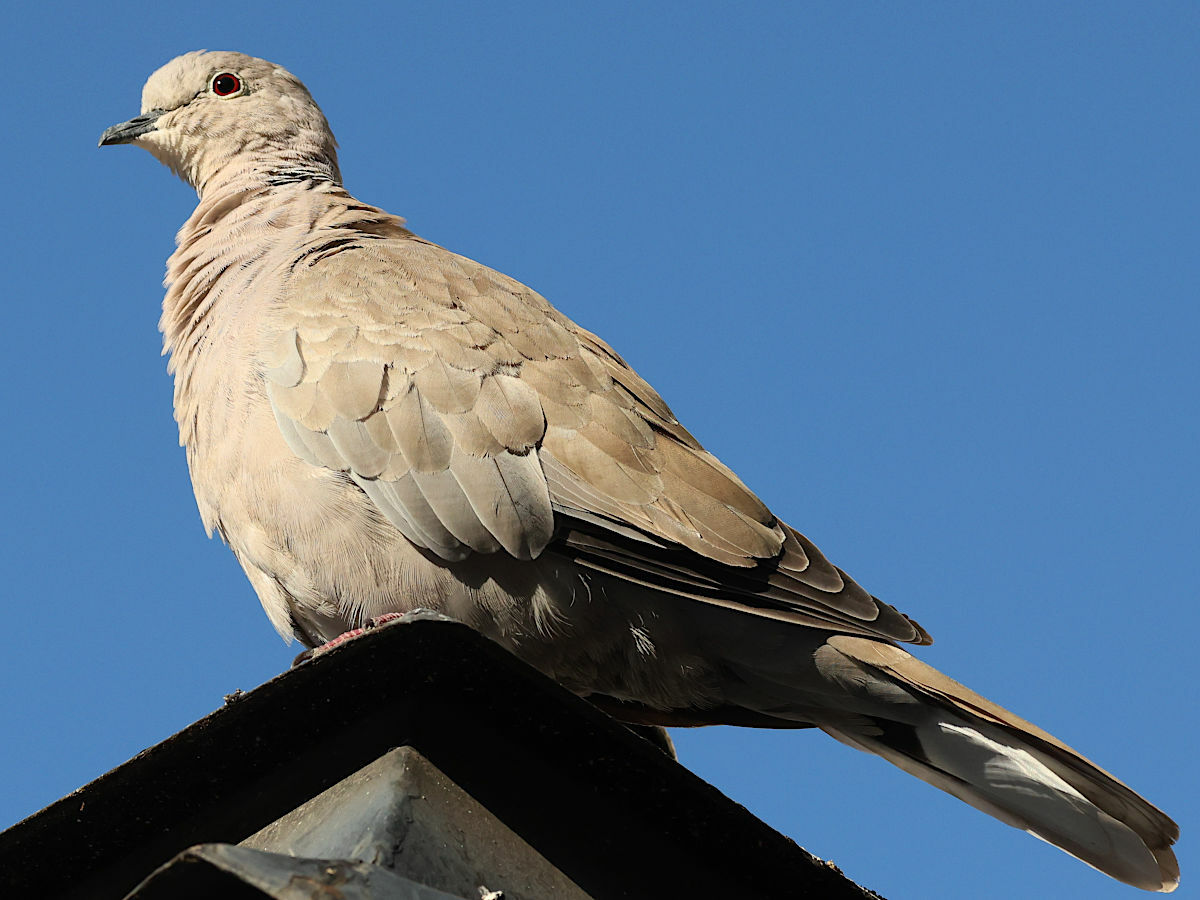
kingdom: Animalia
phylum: Chordata
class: Aves
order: Columbiformes
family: Columbidae
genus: Streptopelia
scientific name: Streptopelia decaocto
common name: Eurasian collared dove
